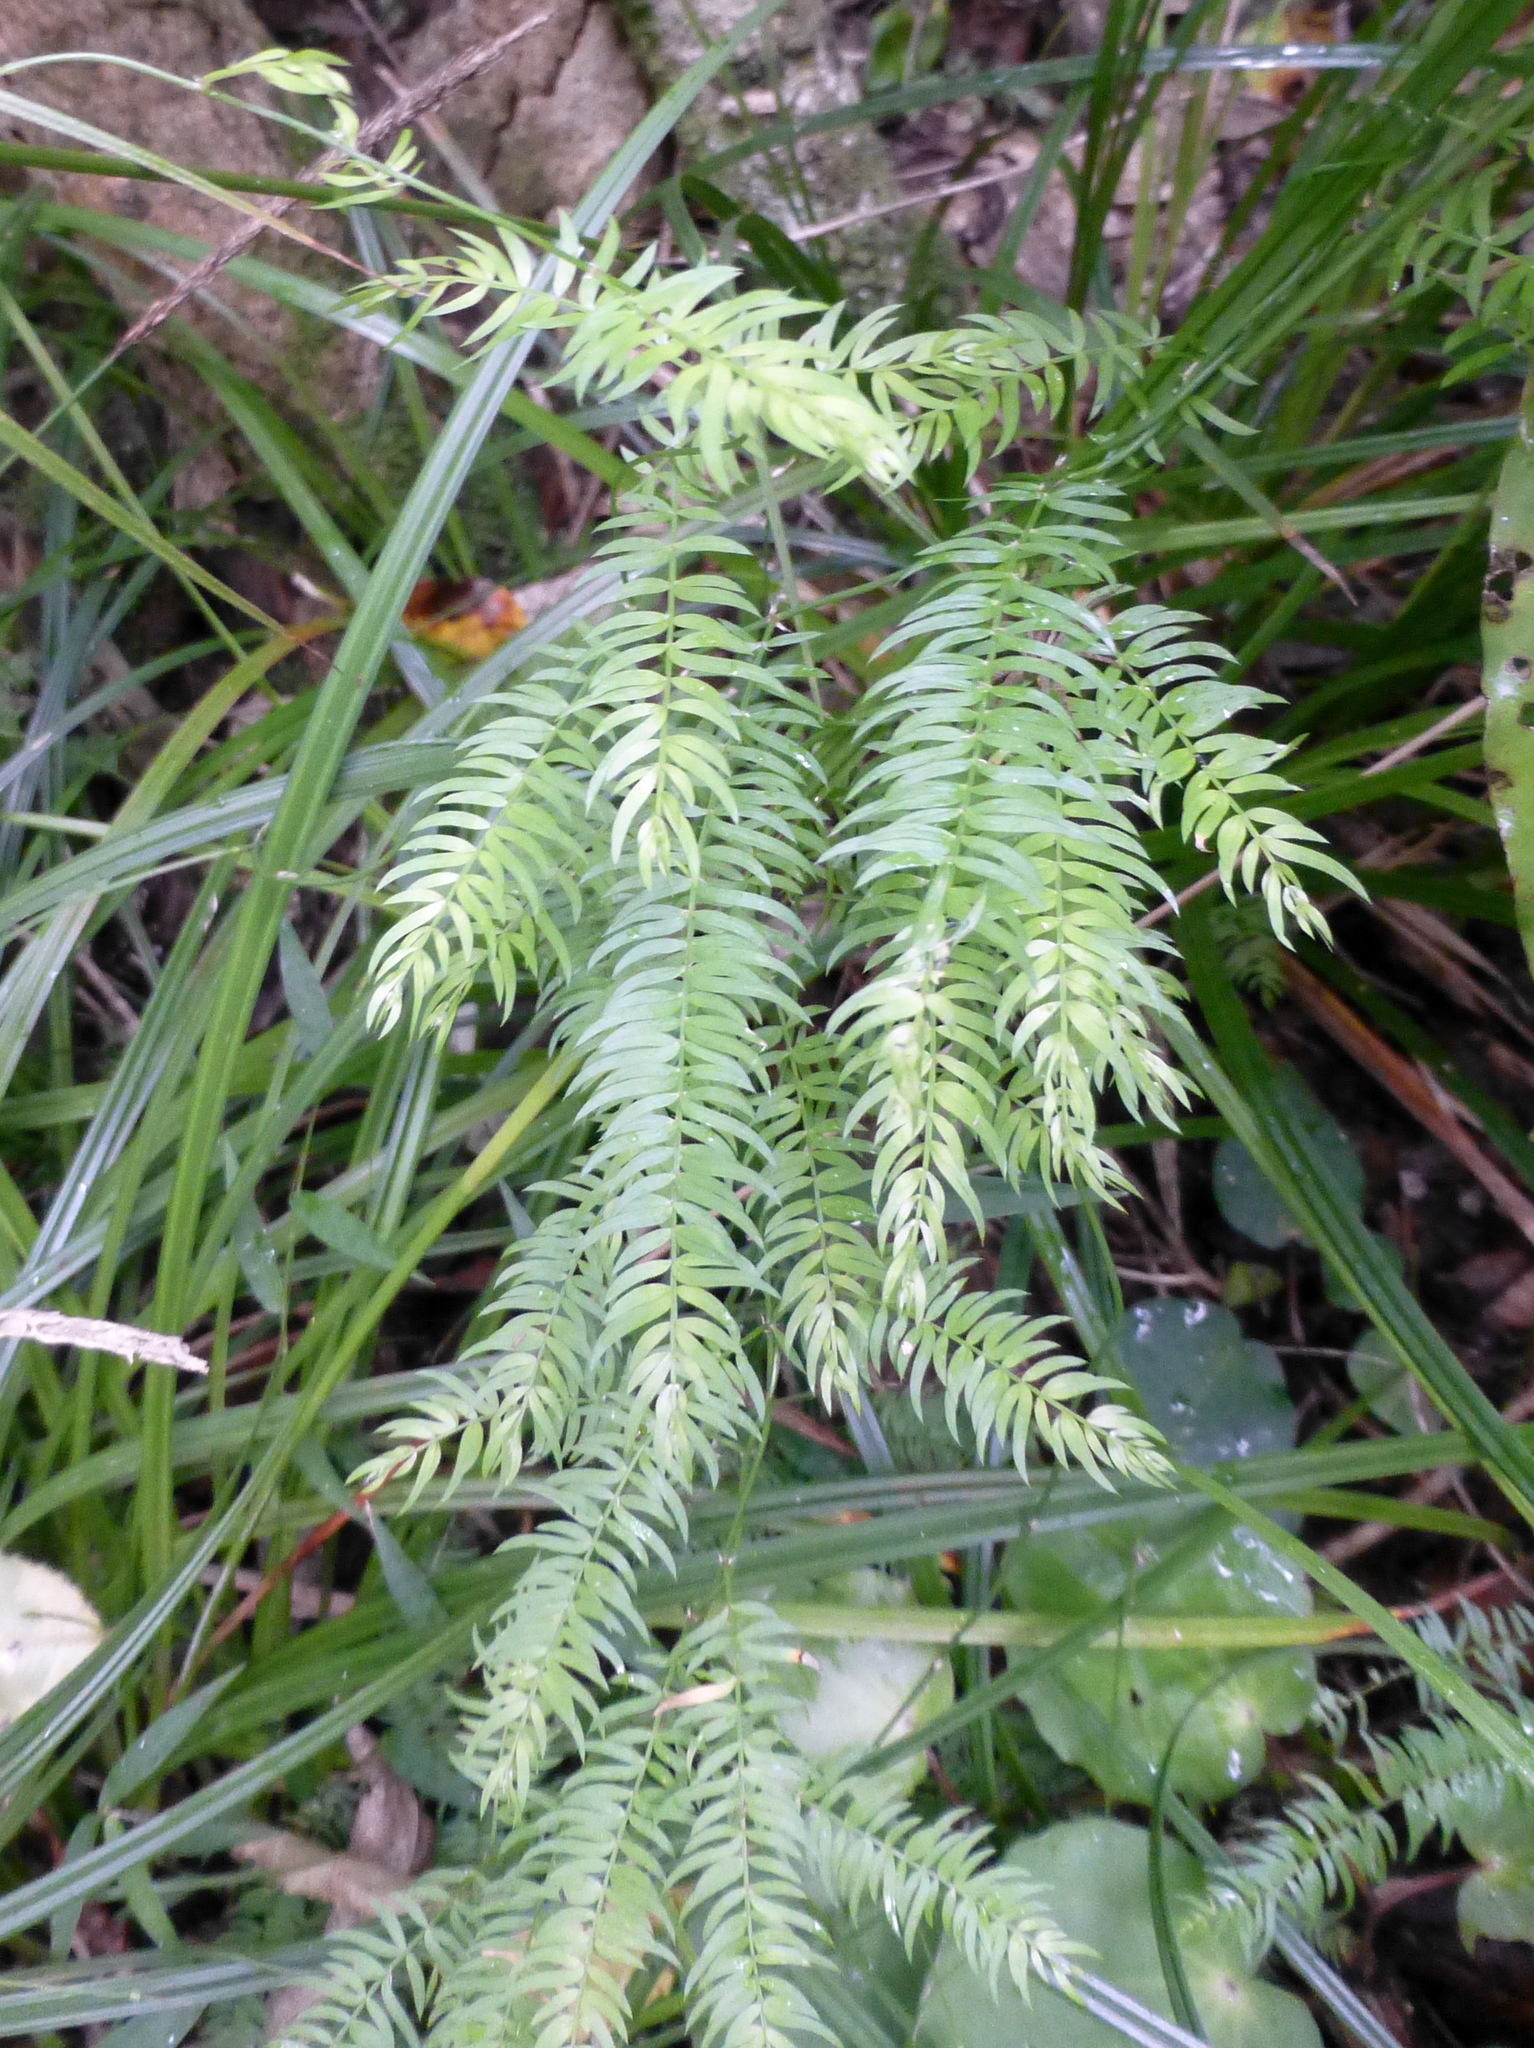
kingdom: Plantae
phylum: Tracheophyta
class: Liliopsida
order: Asparagales
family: Asparagaceae
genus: Asparagus
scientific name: Asparagus scandens
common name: Asparagus-fern
